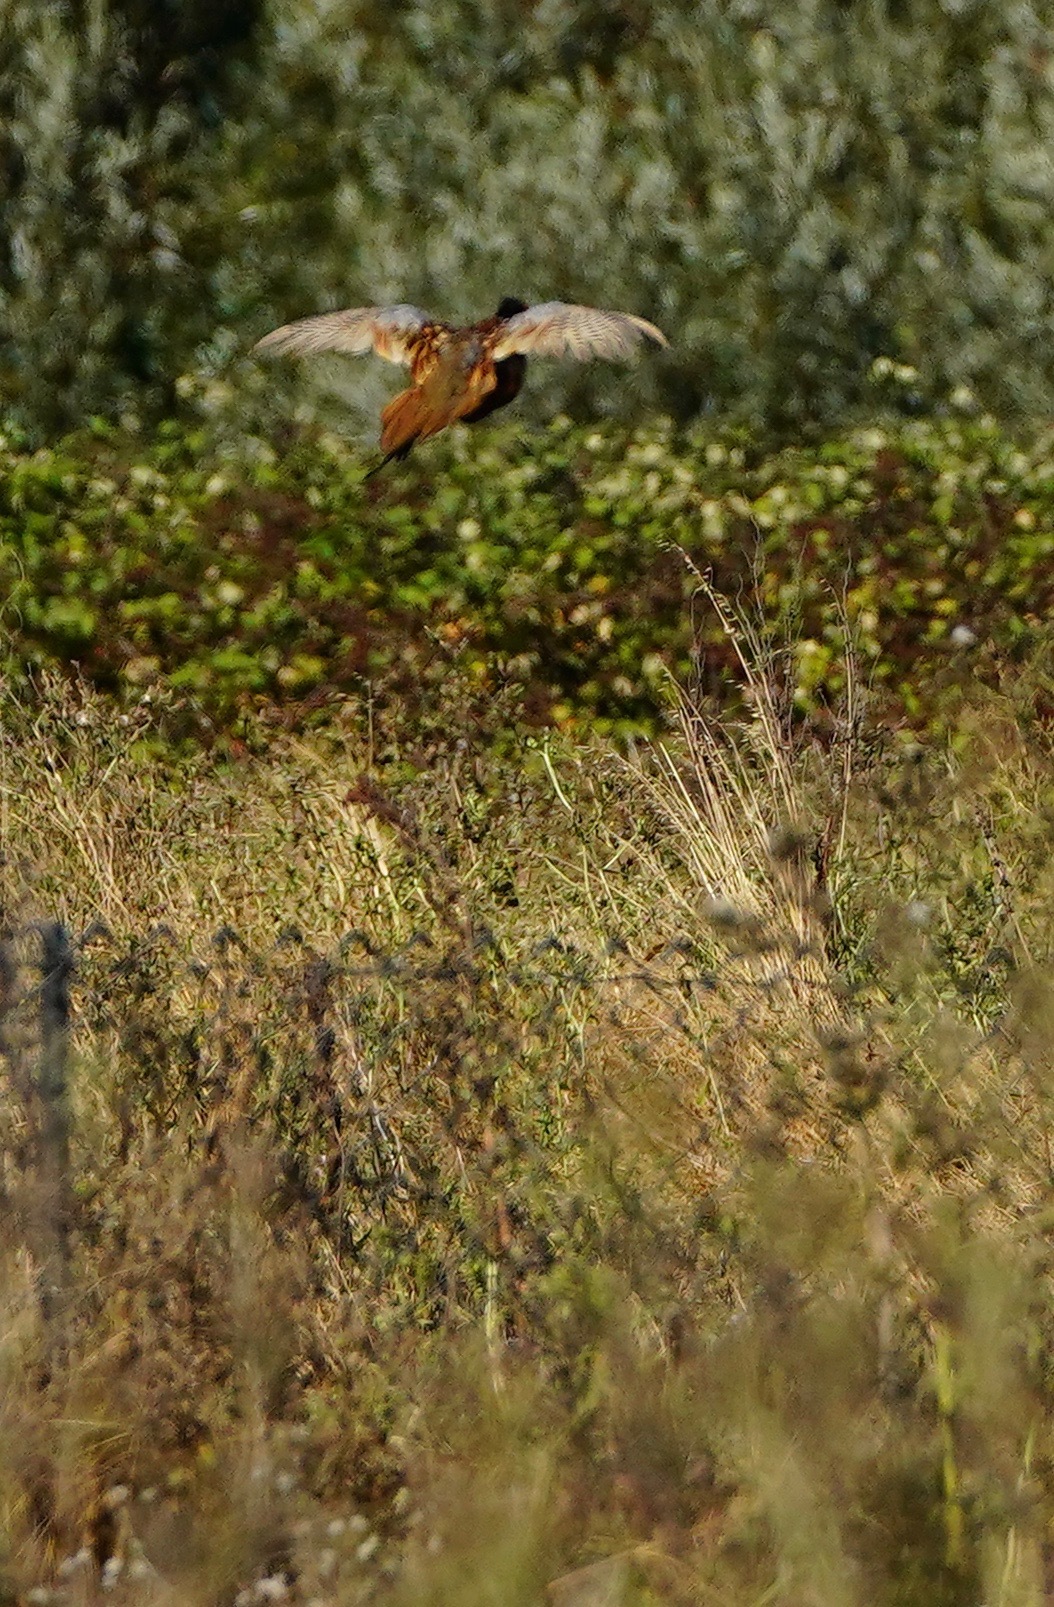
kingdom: Animalia
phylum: Chordata
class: Aves
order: Galliformes
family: Phasianidae
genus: Phasianus
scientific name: Phasianus colchicus
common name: Common pheasant
